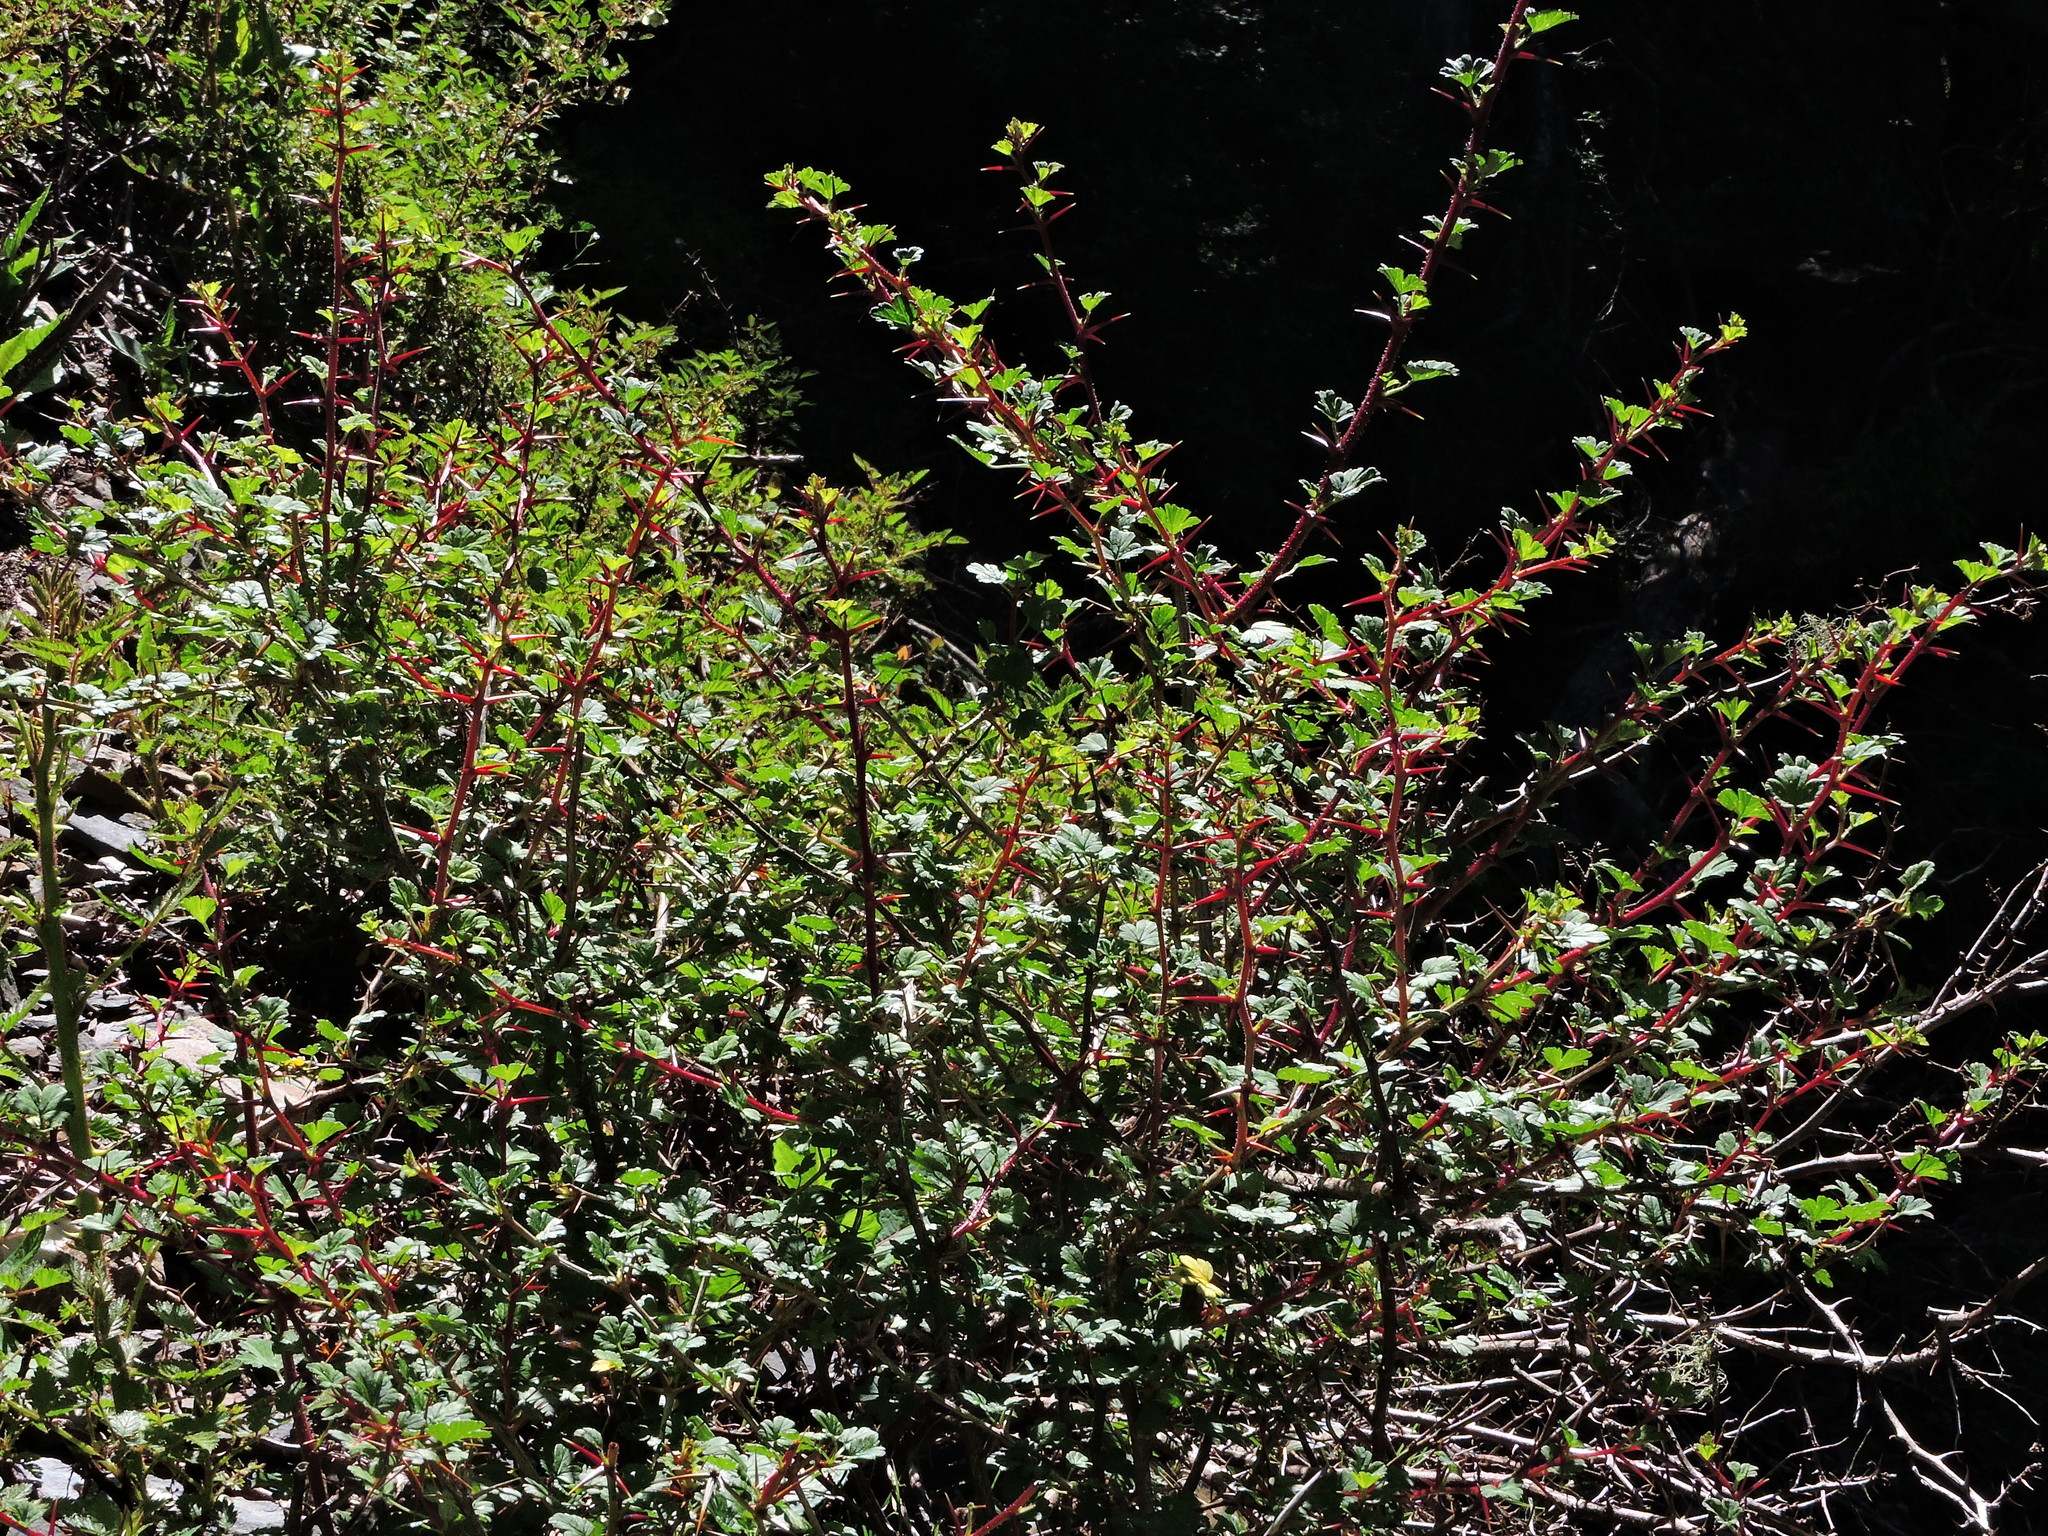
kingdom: Plantae
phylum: Tracheophyta
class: Magnoliopsida
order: Saxifragales
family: Grossulariaceae
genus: Ribes
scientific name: Ribes formosanum
